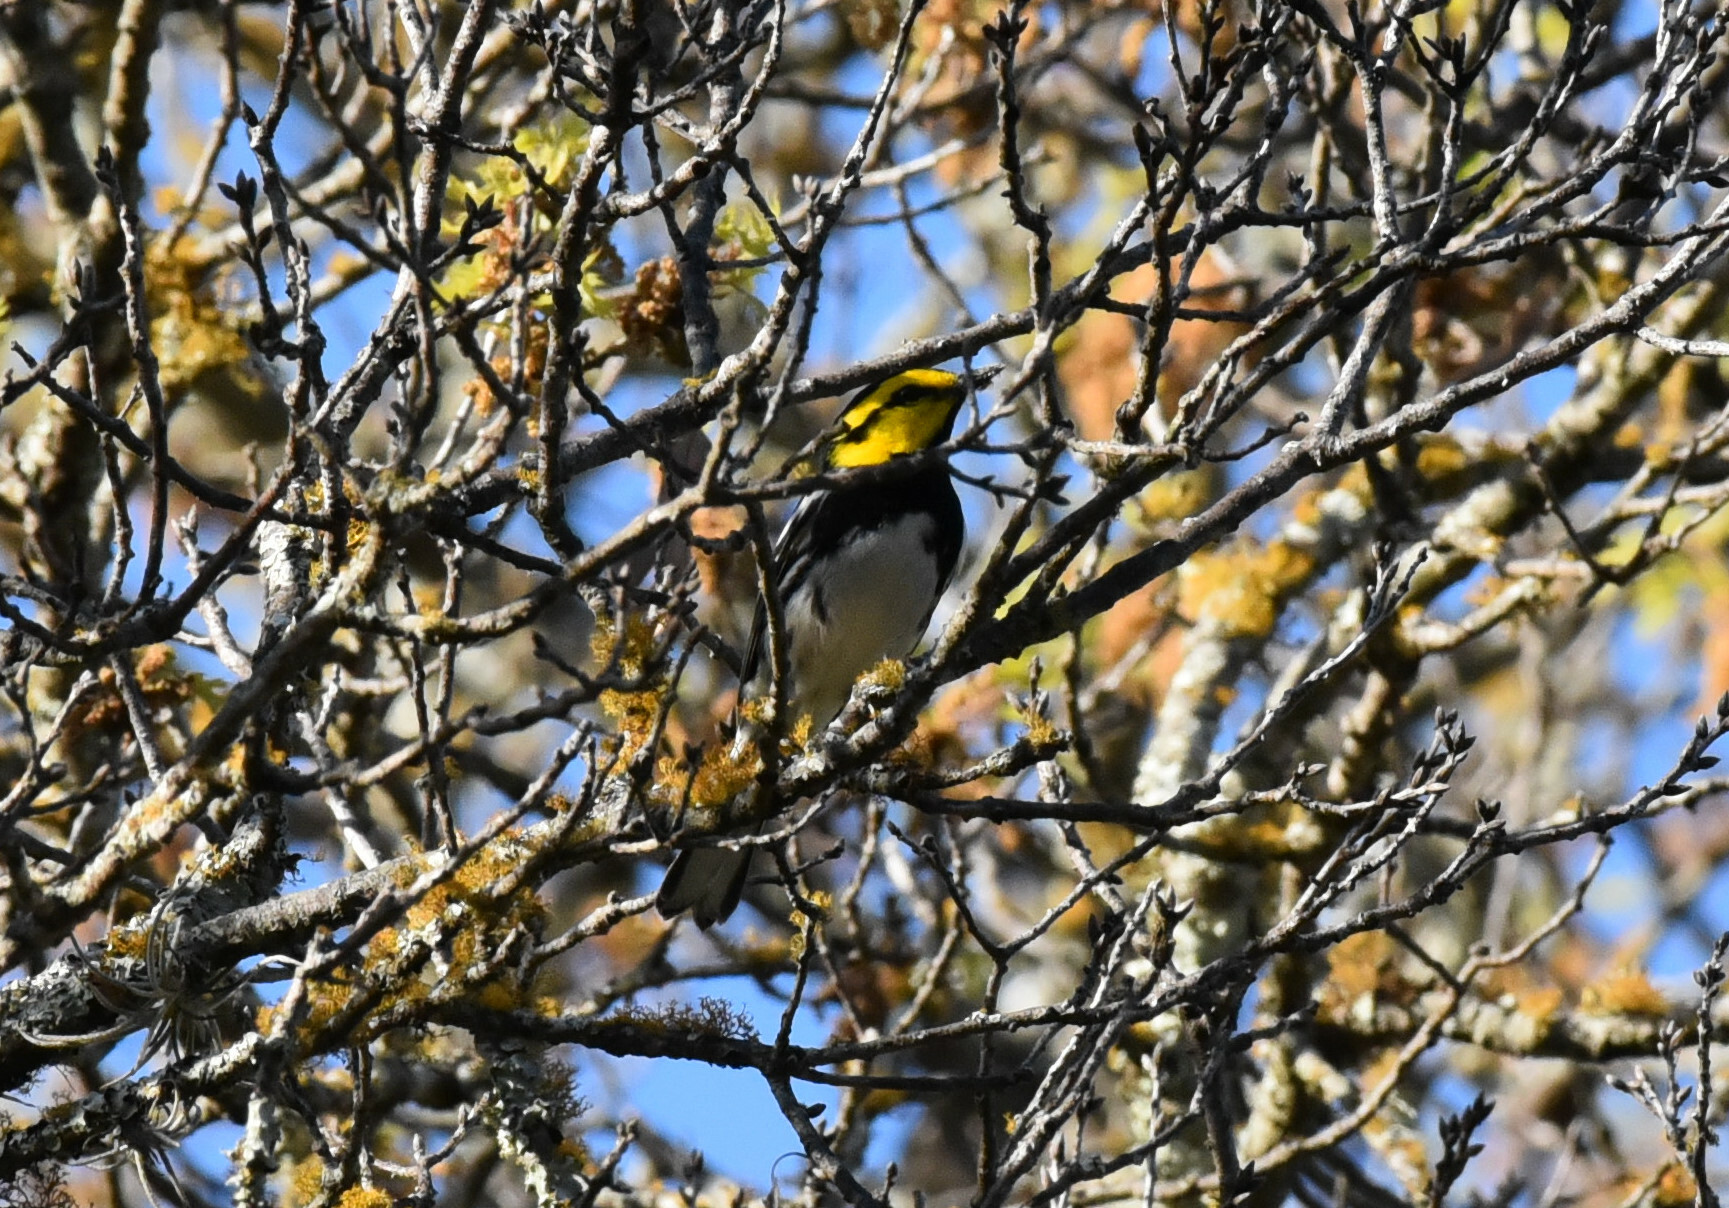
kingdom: Animalia
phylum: Chordata
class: Aves
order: Passeriformes
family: Parulidae
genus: Setophaga
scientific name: Setophaga chrysoparia
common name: Golden-cheeked warbler
